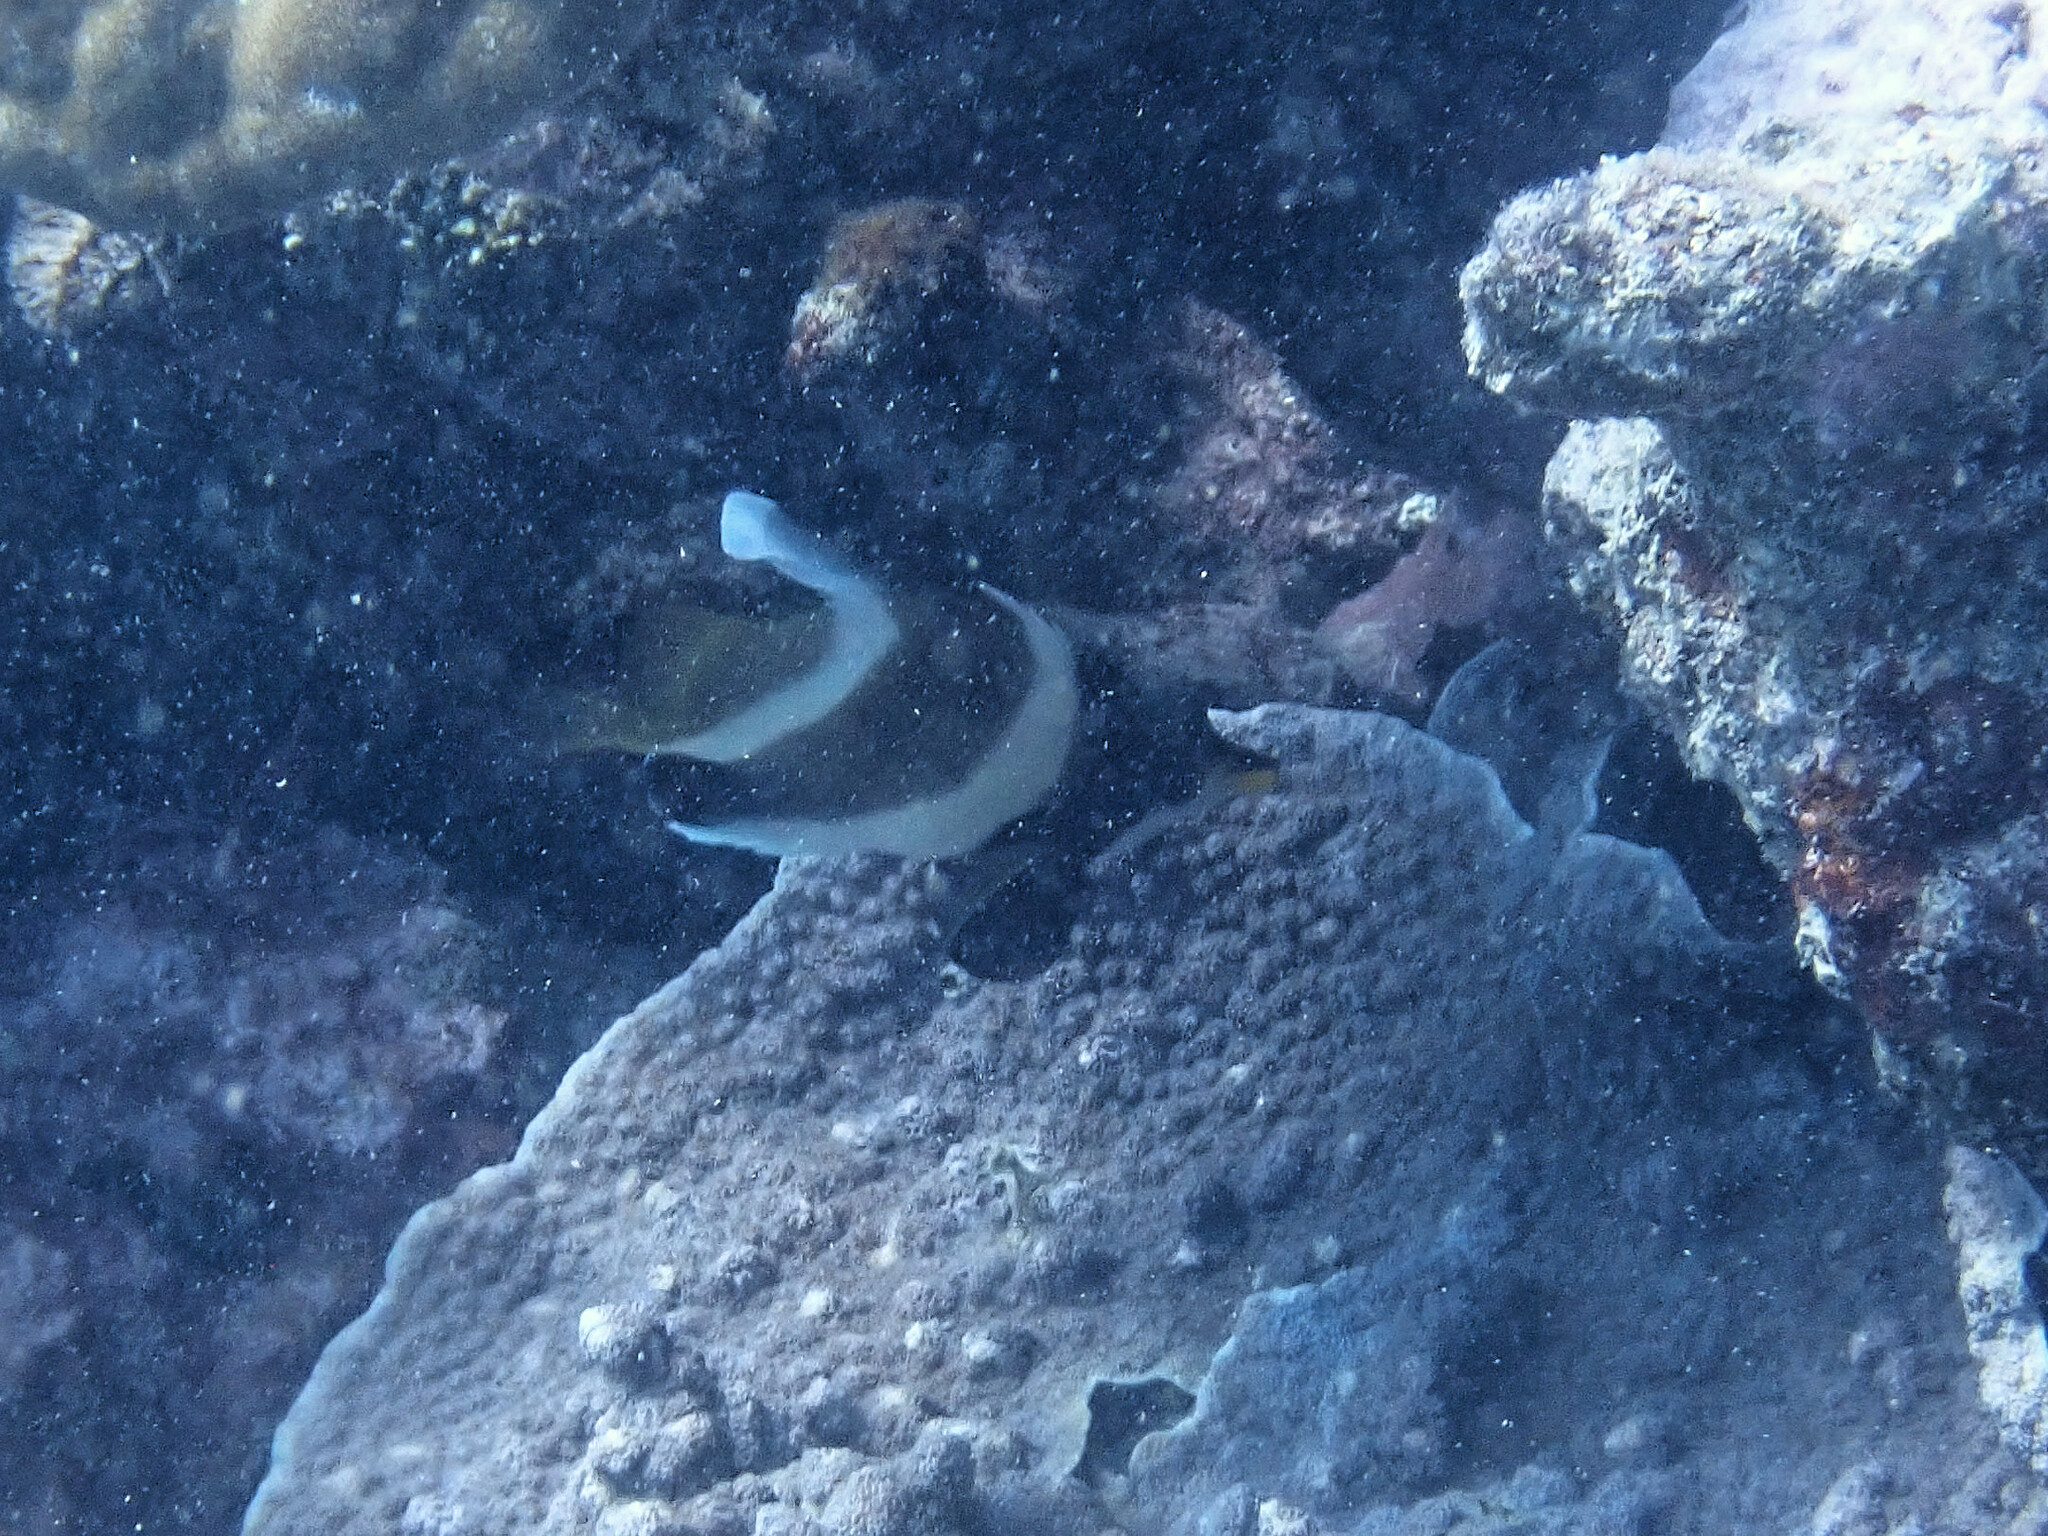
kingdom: Animalia
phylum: Chordata
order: Perciformes
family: Chaetodontidae
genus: Heniochus
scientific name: Heniochus chrysostomus
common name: Horned bannerfish
